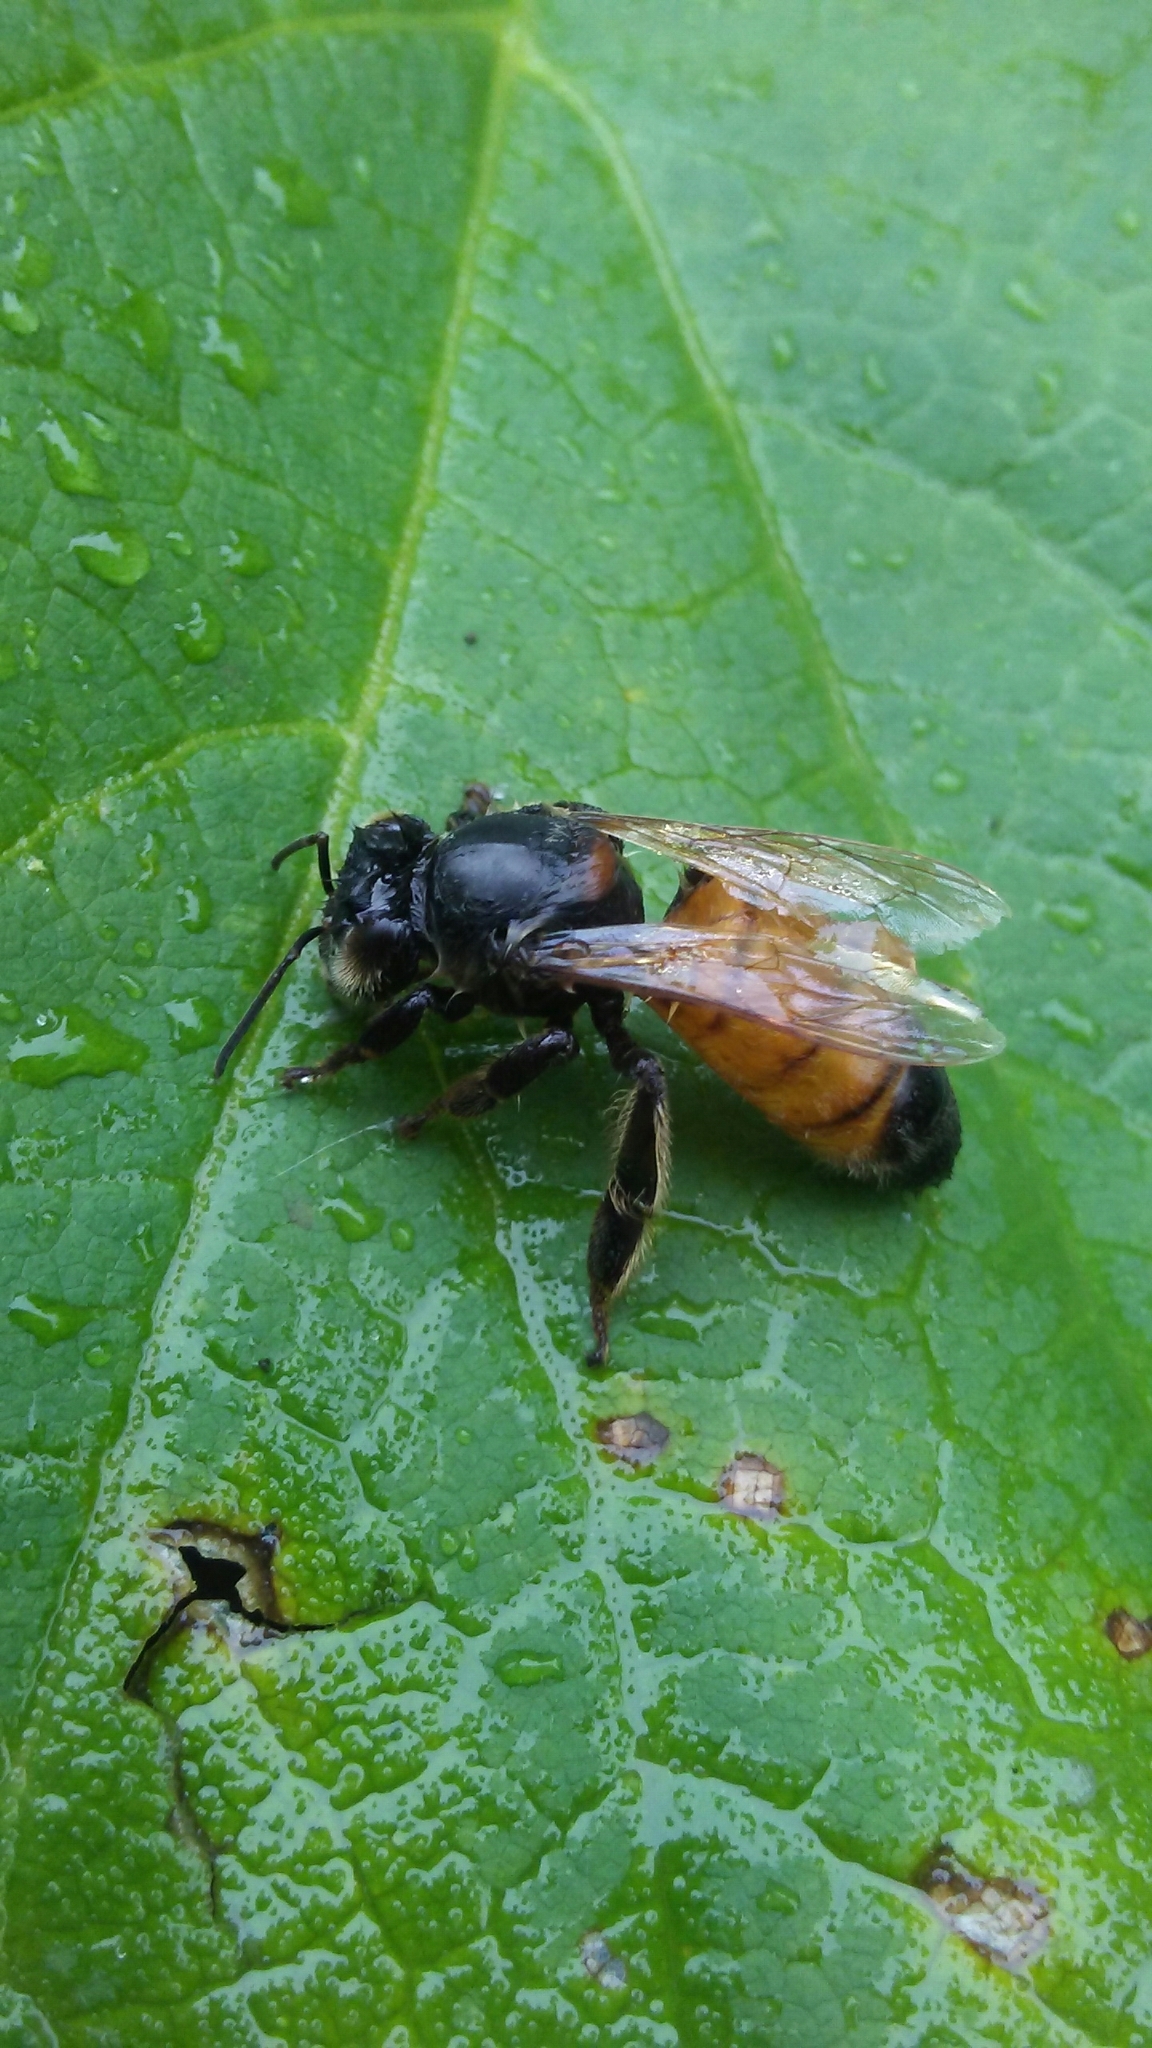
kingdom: Animalia
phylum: Arthropoda
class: Insecta
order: Hymenoptera
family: Apidae
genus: Apis
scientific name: Apis mellifera
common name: Honey bee
